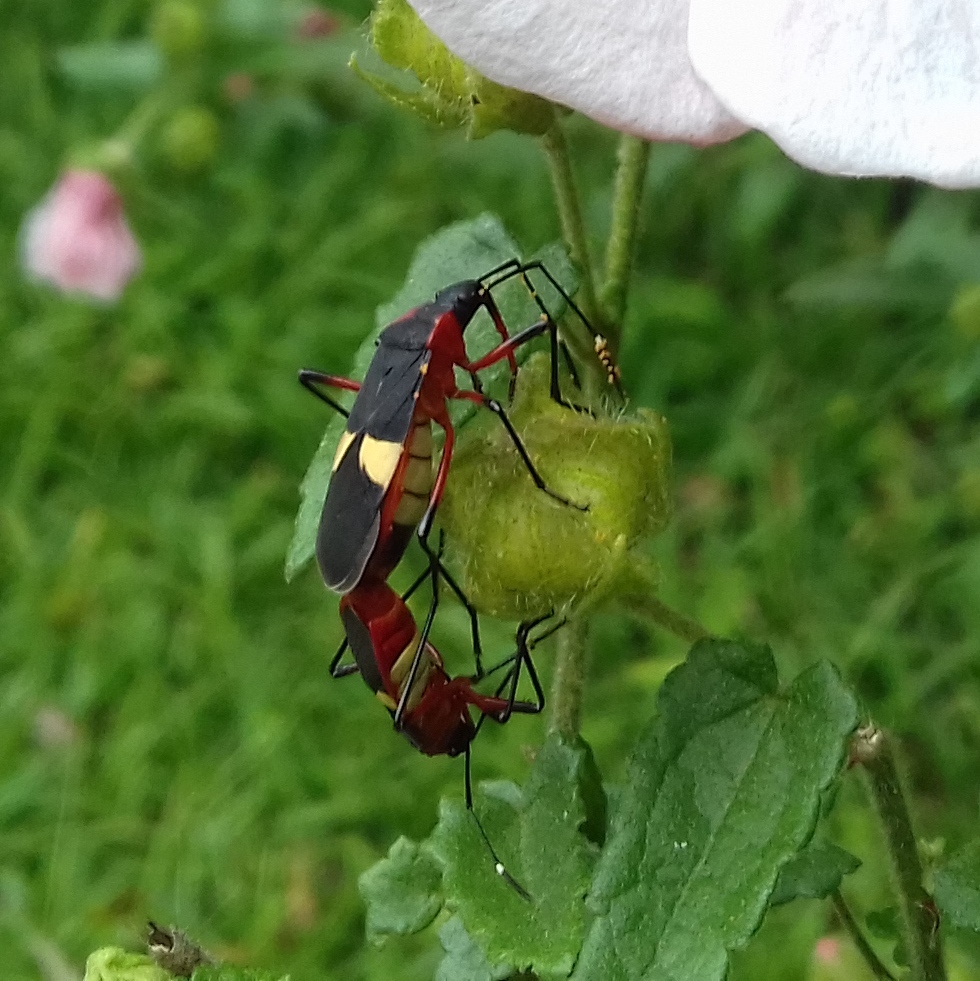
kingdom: Animalia
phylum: Arthropoda
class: Insecta
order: Hemiptera
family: Pyrrhocoridae
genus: Dysdercus
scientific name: Dysdercus albofasciatus
